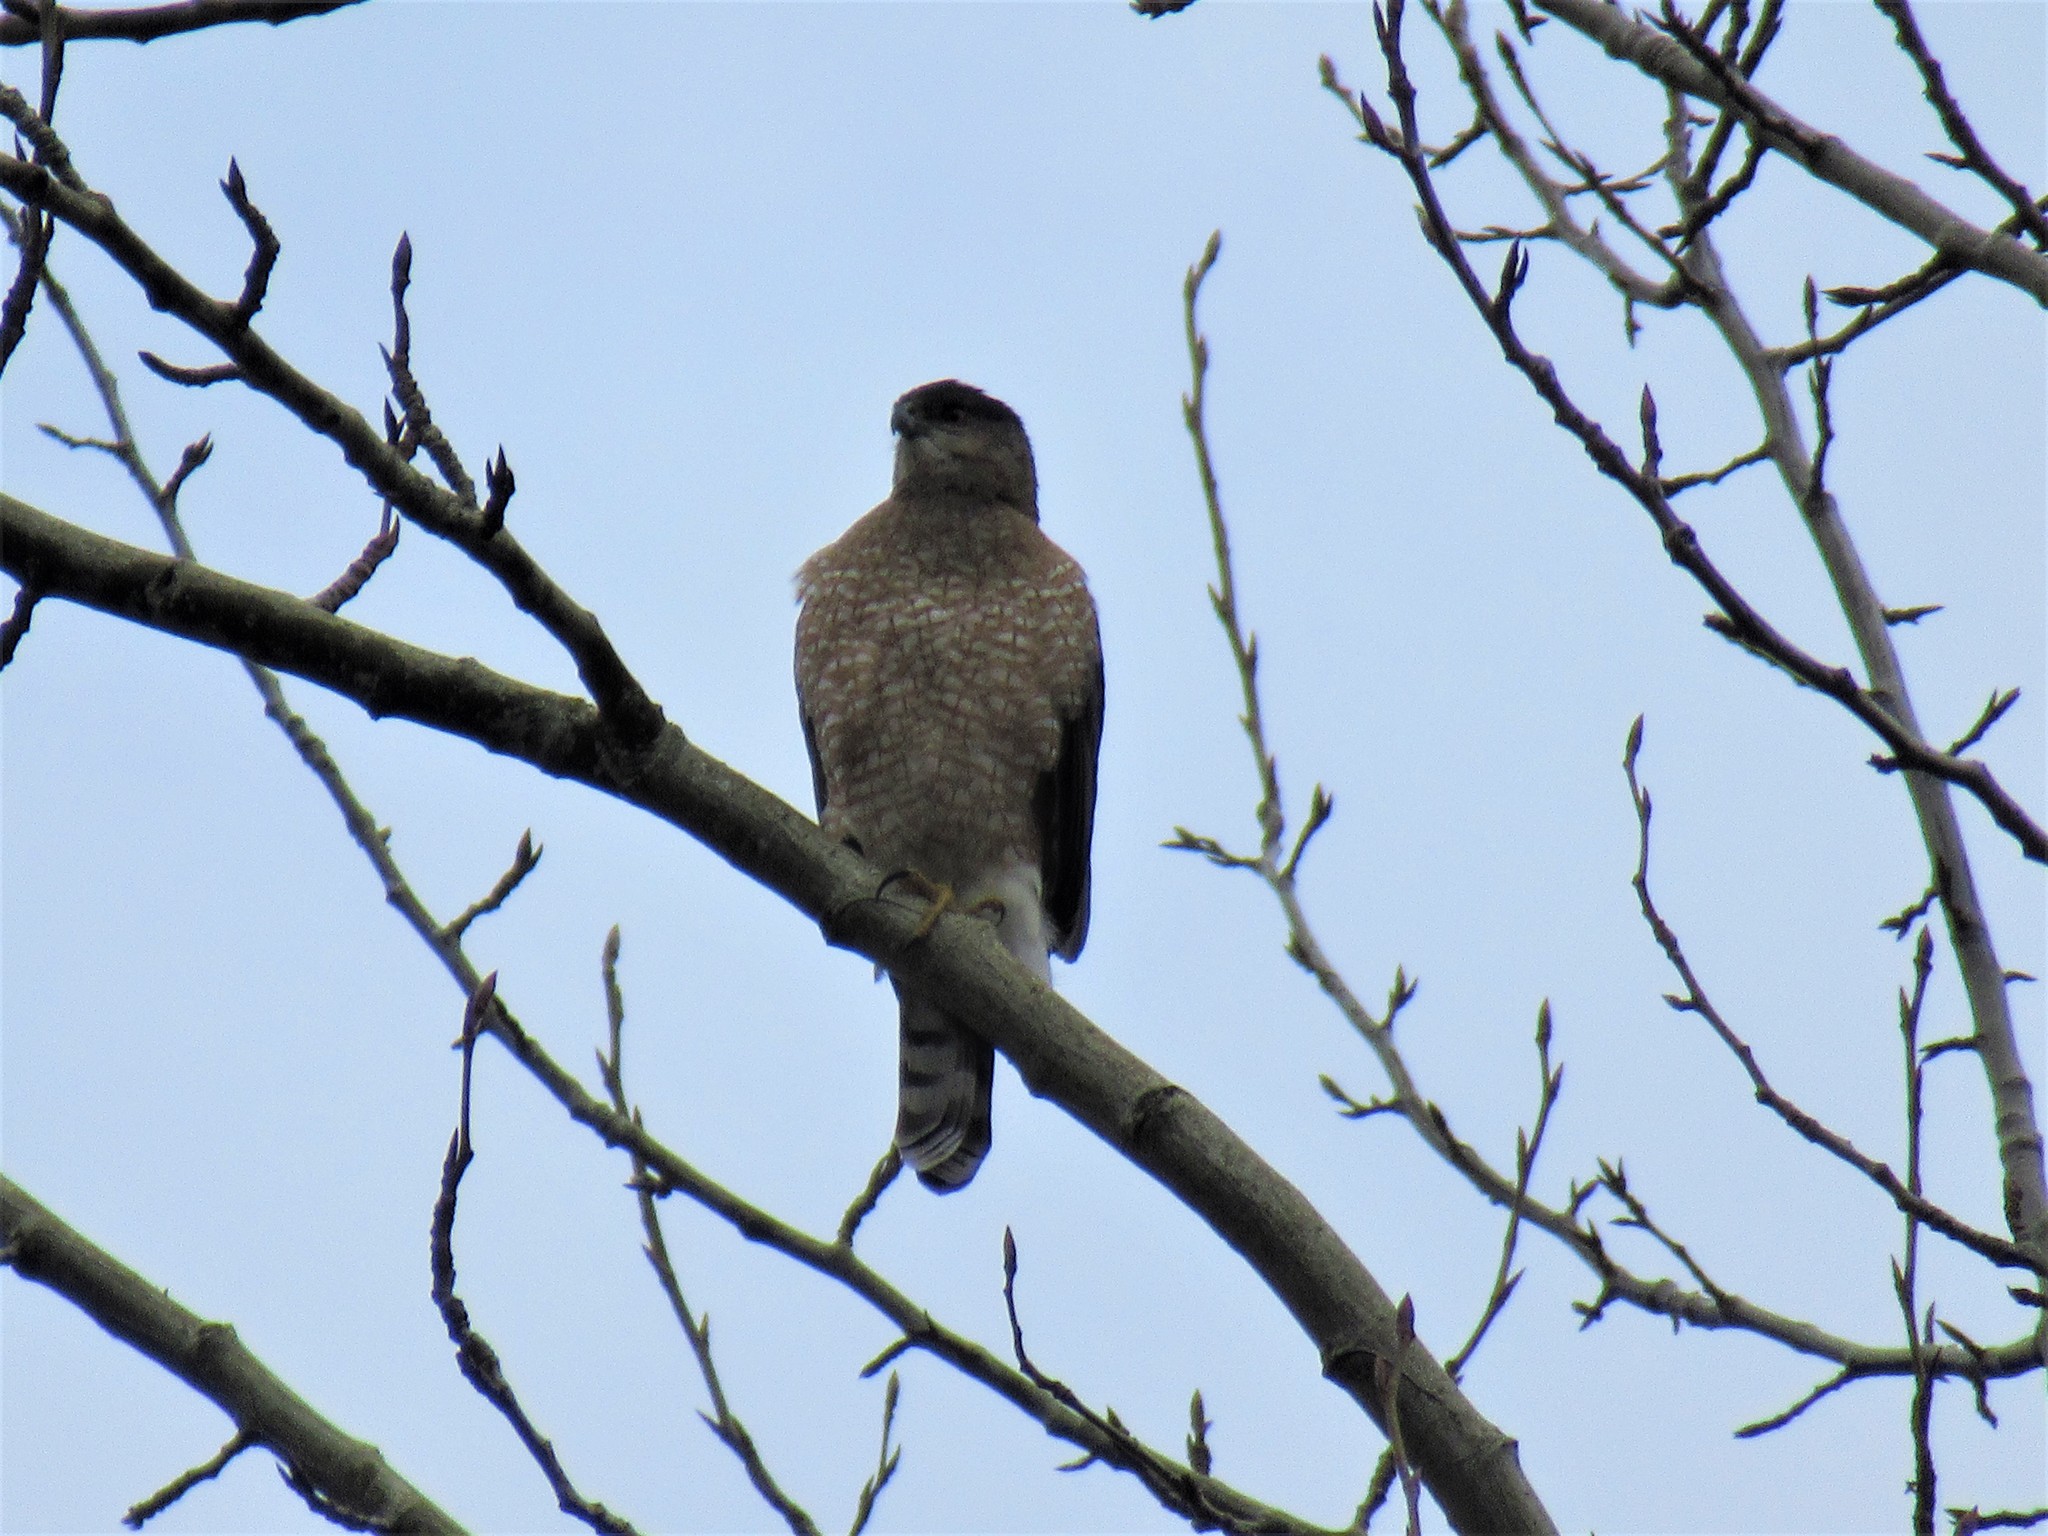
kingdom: Animalia
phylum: Chordata
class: Aves
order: Accipitriformes
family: Accipitridae
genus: Accipiter
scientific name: Accipiter cooperii
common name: Cooper's hawk
